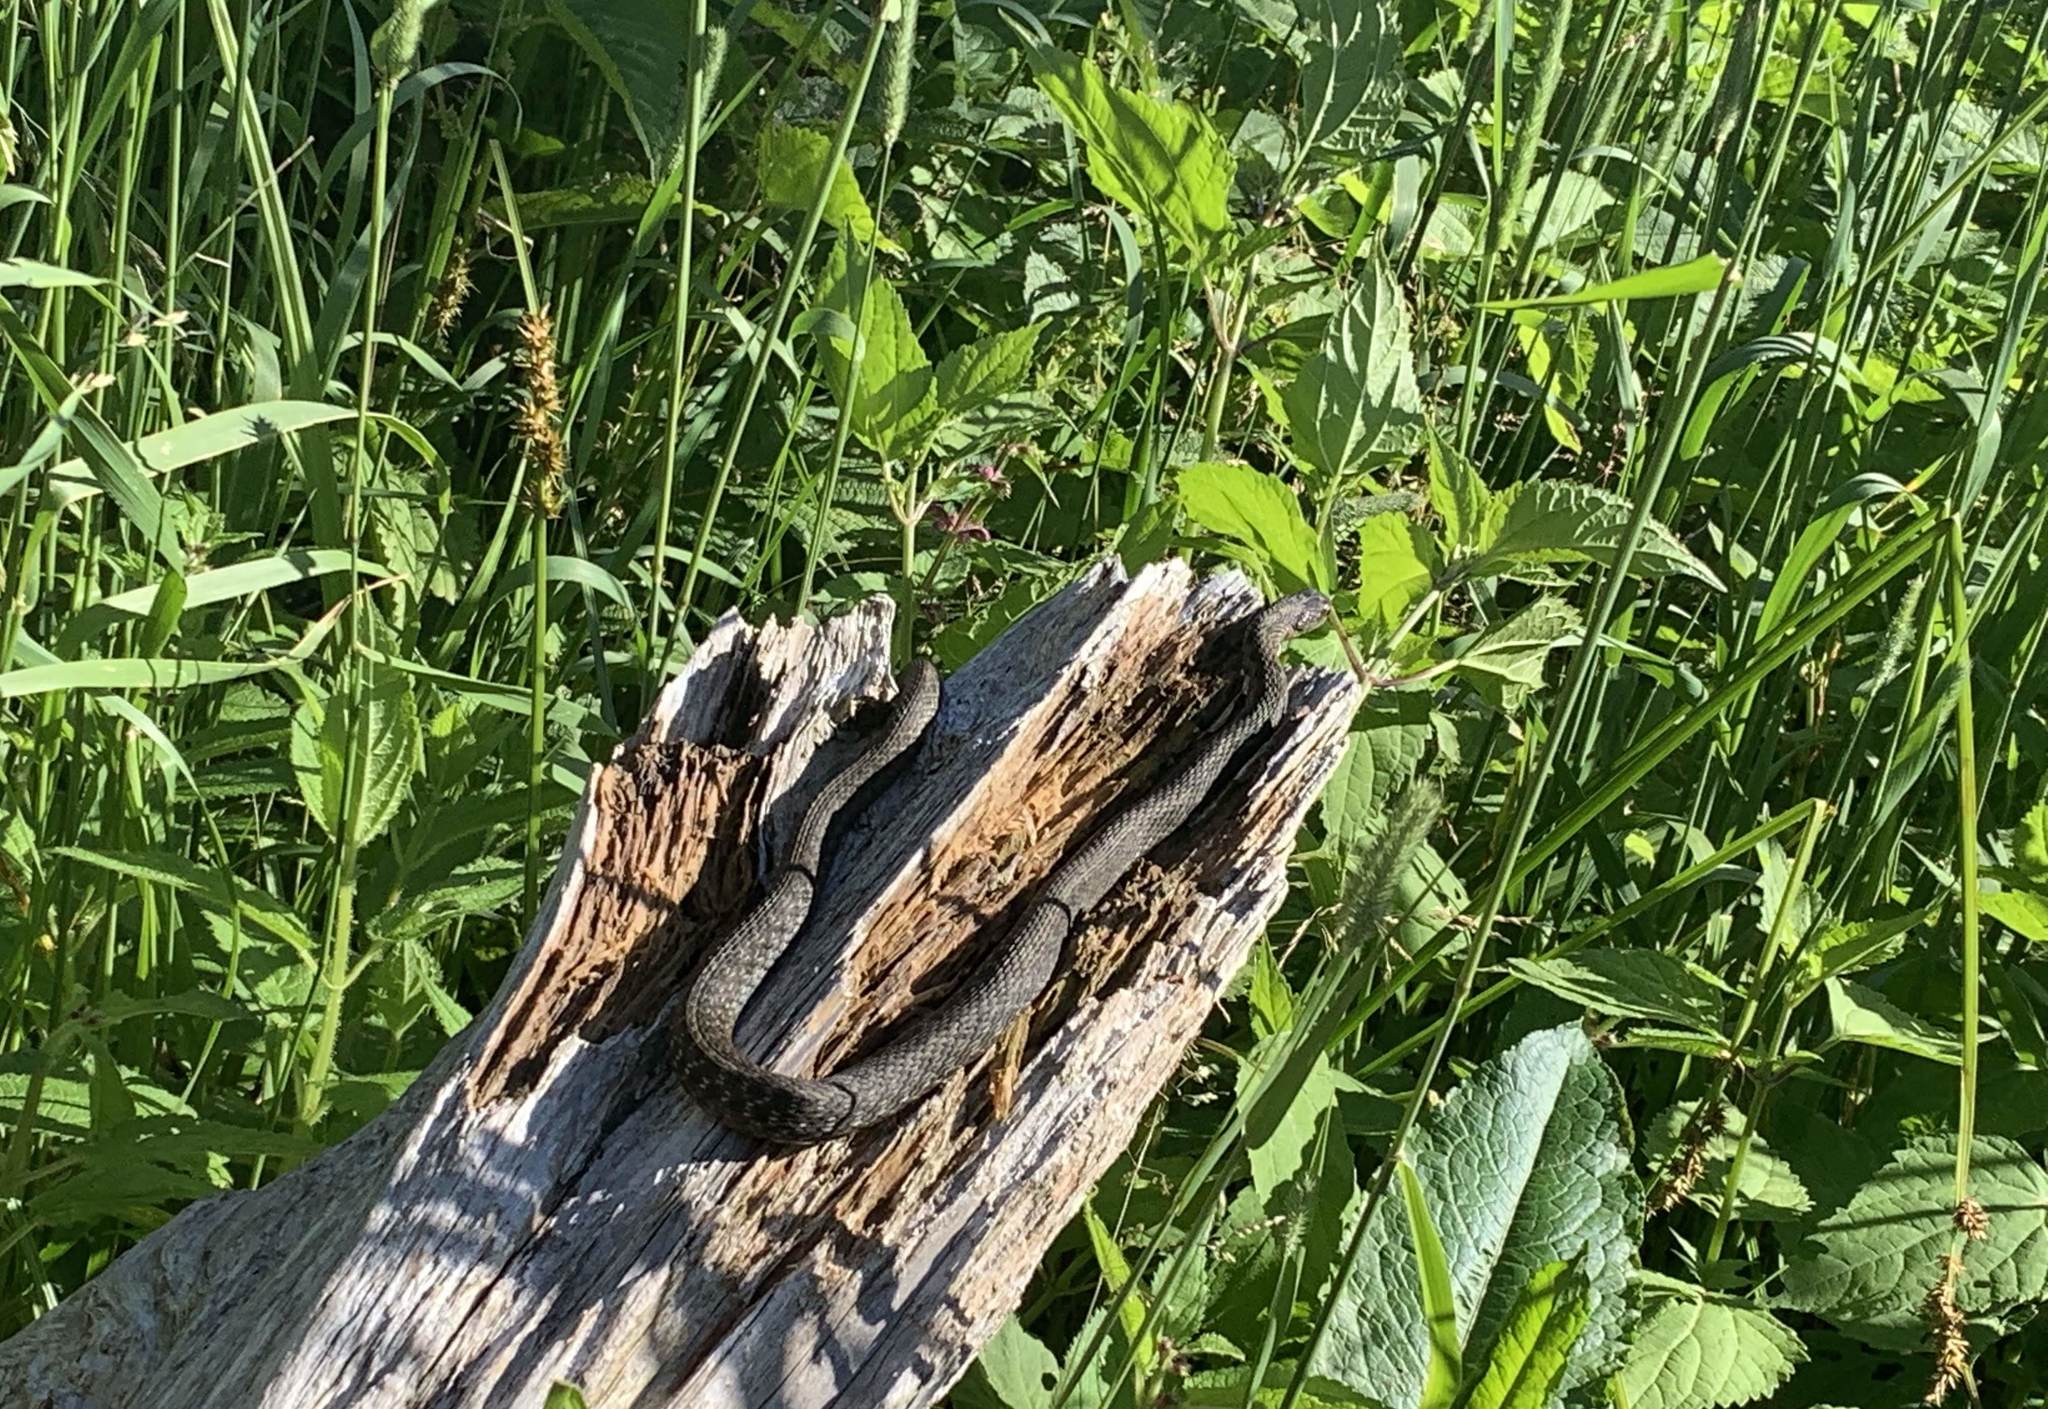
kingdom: Animalia
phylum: Chordata
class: Squamata
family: Colubridae
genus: Thamnophis
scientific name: Thamnophis sirtalis
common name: Common garter snake
